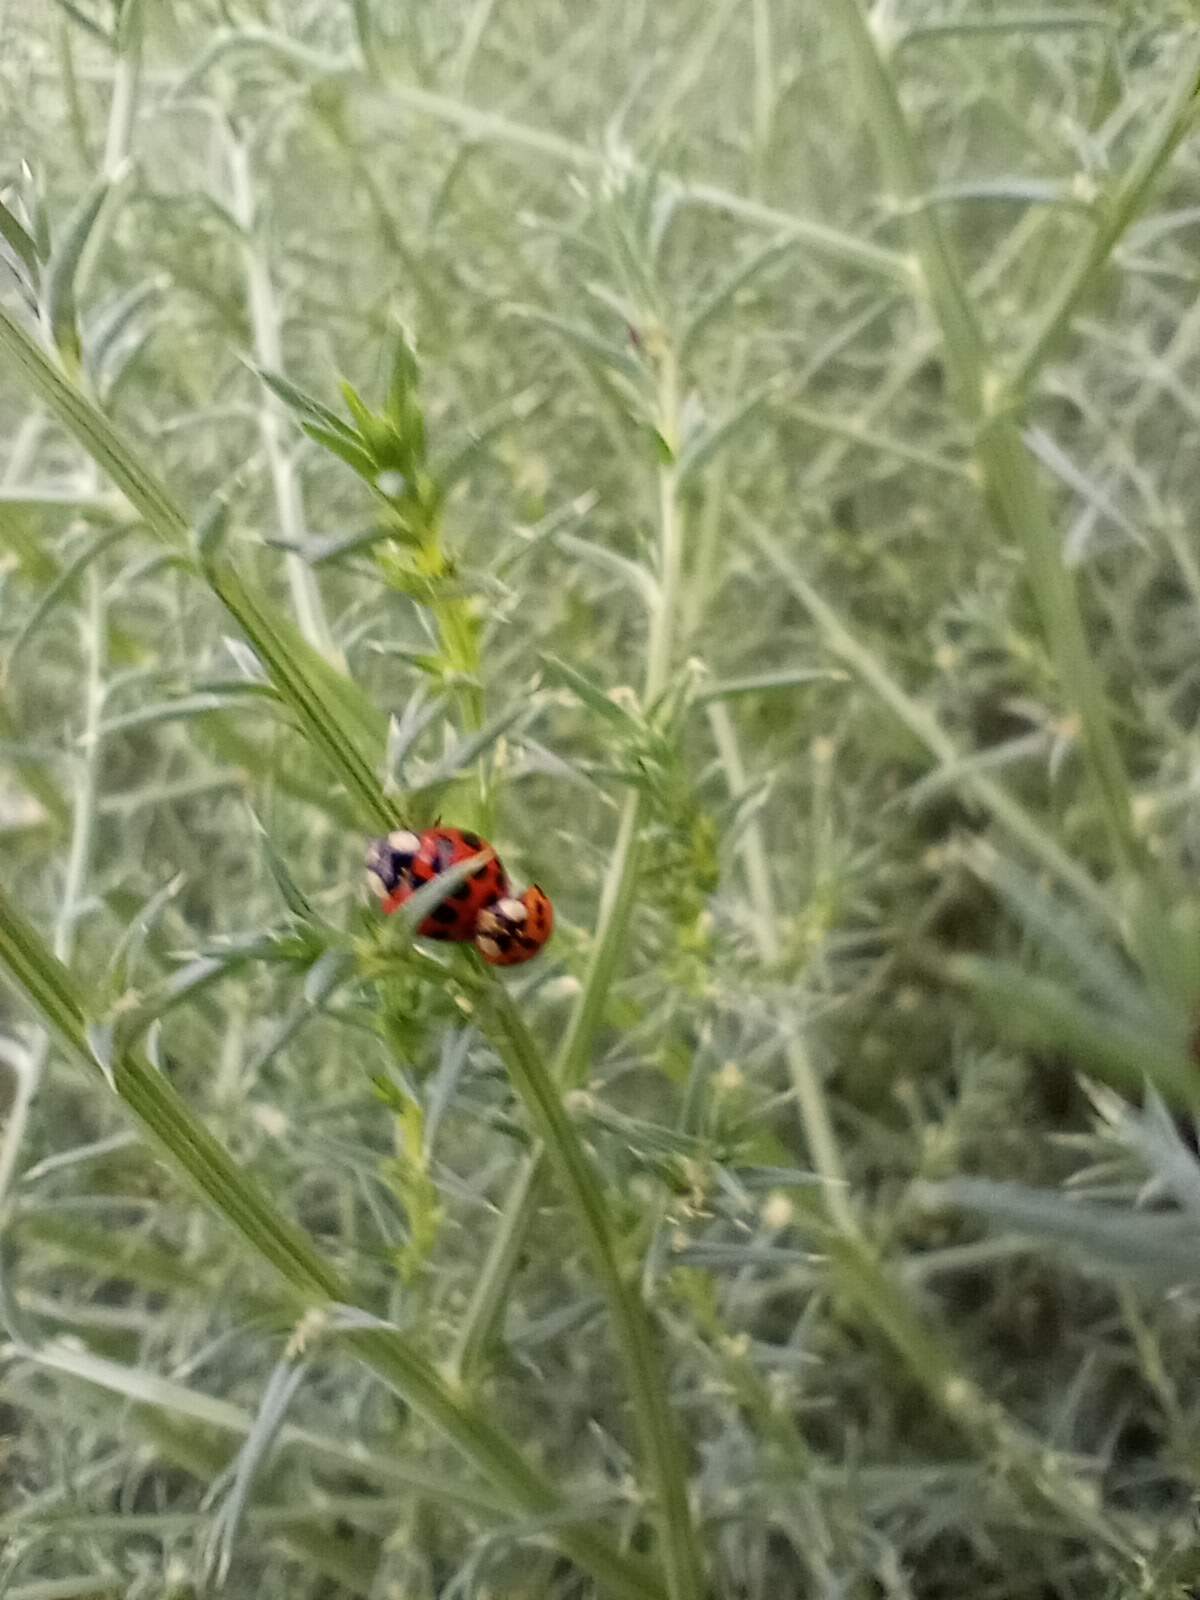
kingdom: Animalia
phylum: Arthropoda
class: Insecta
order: Coleoptera
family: Coccinellidae
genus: Harmonia
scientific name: Harmonia axyridis
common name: Harlequin ladybird
